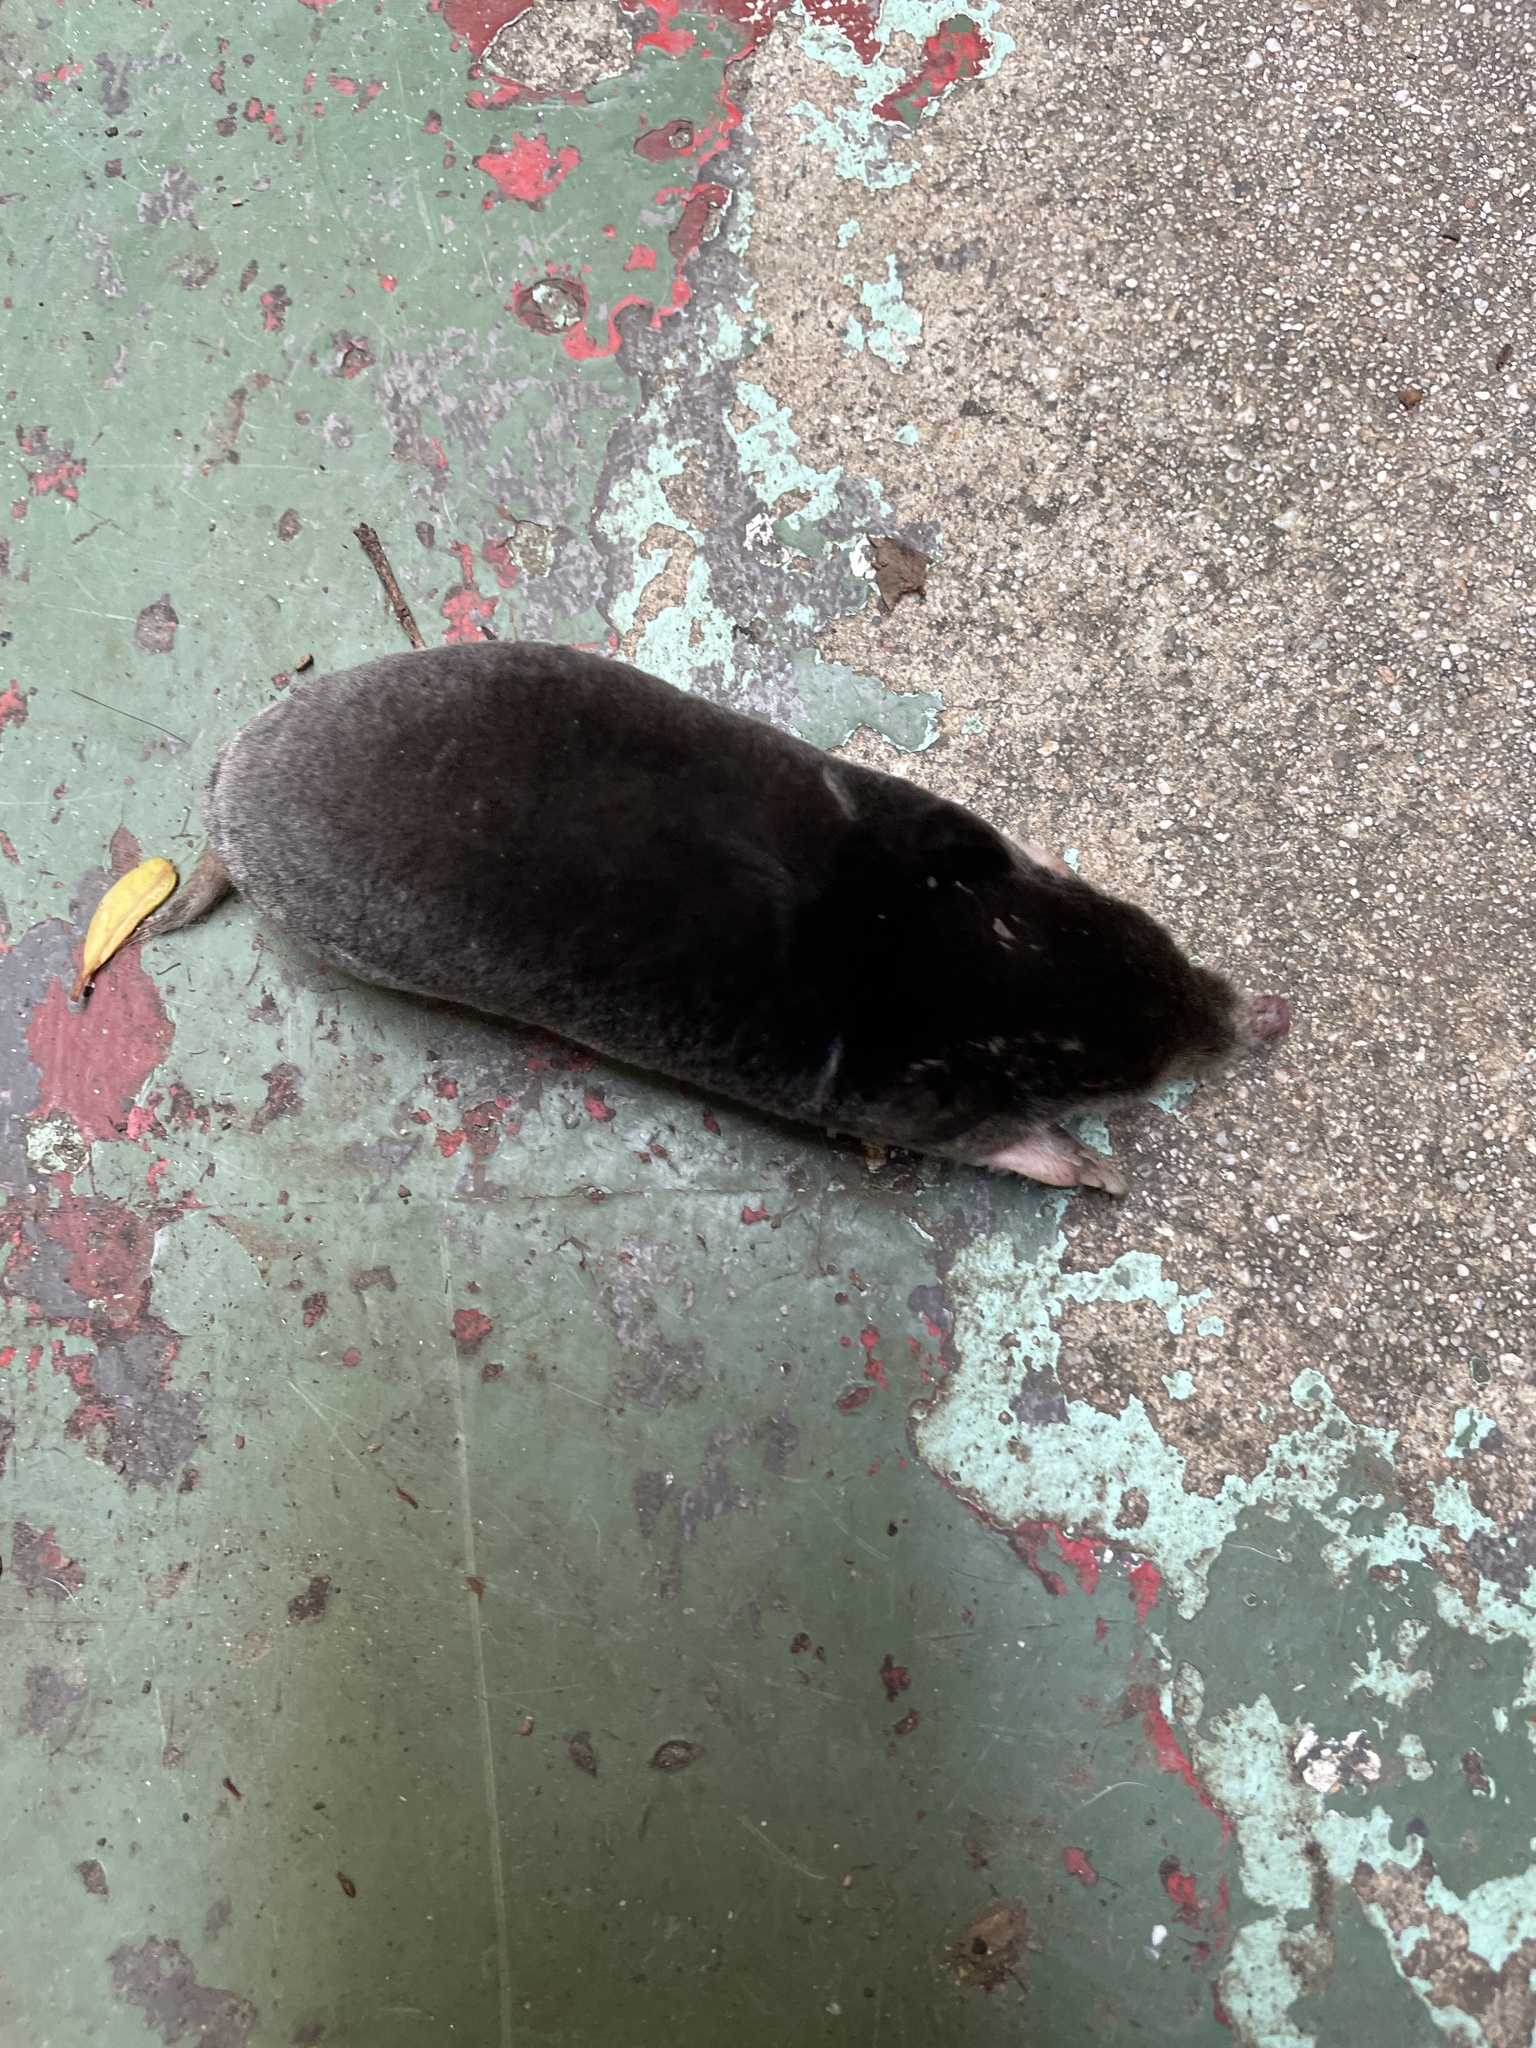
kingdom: Animalia
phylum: Chordata
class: Mammalia
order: Soricomorpha
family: Talpidae
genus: Scapanus
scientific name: Scapanus latimanus
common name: Broad-footed mole
